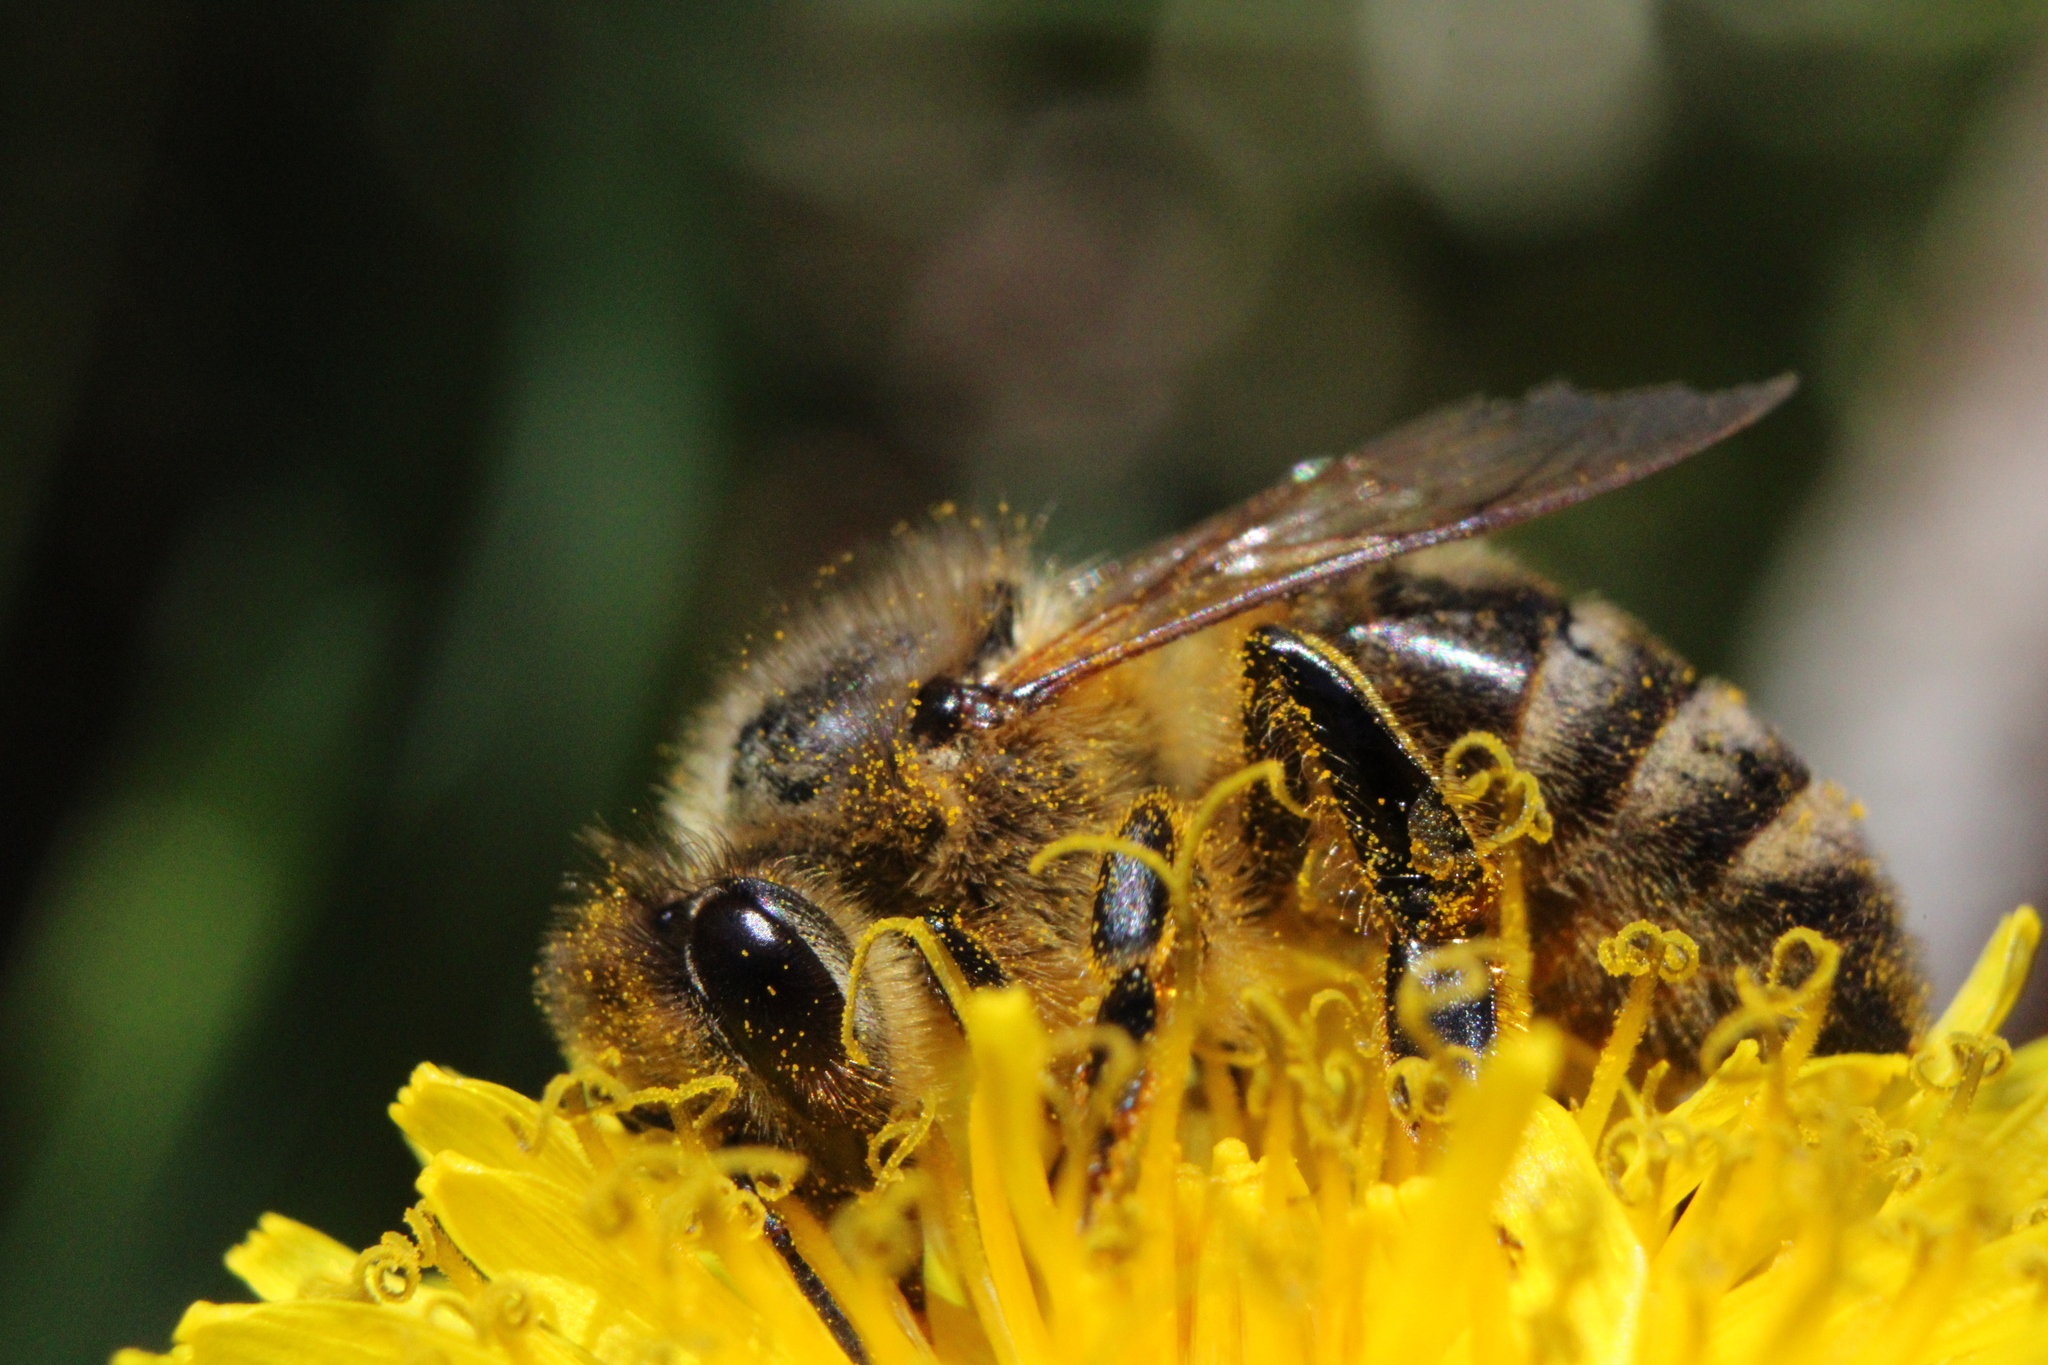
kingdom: Animalia
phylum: Arthropoda
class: Insecta
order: Hymenoptera
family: Apidae
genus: Apis
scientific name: Apis mellifera
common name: Honey bee
